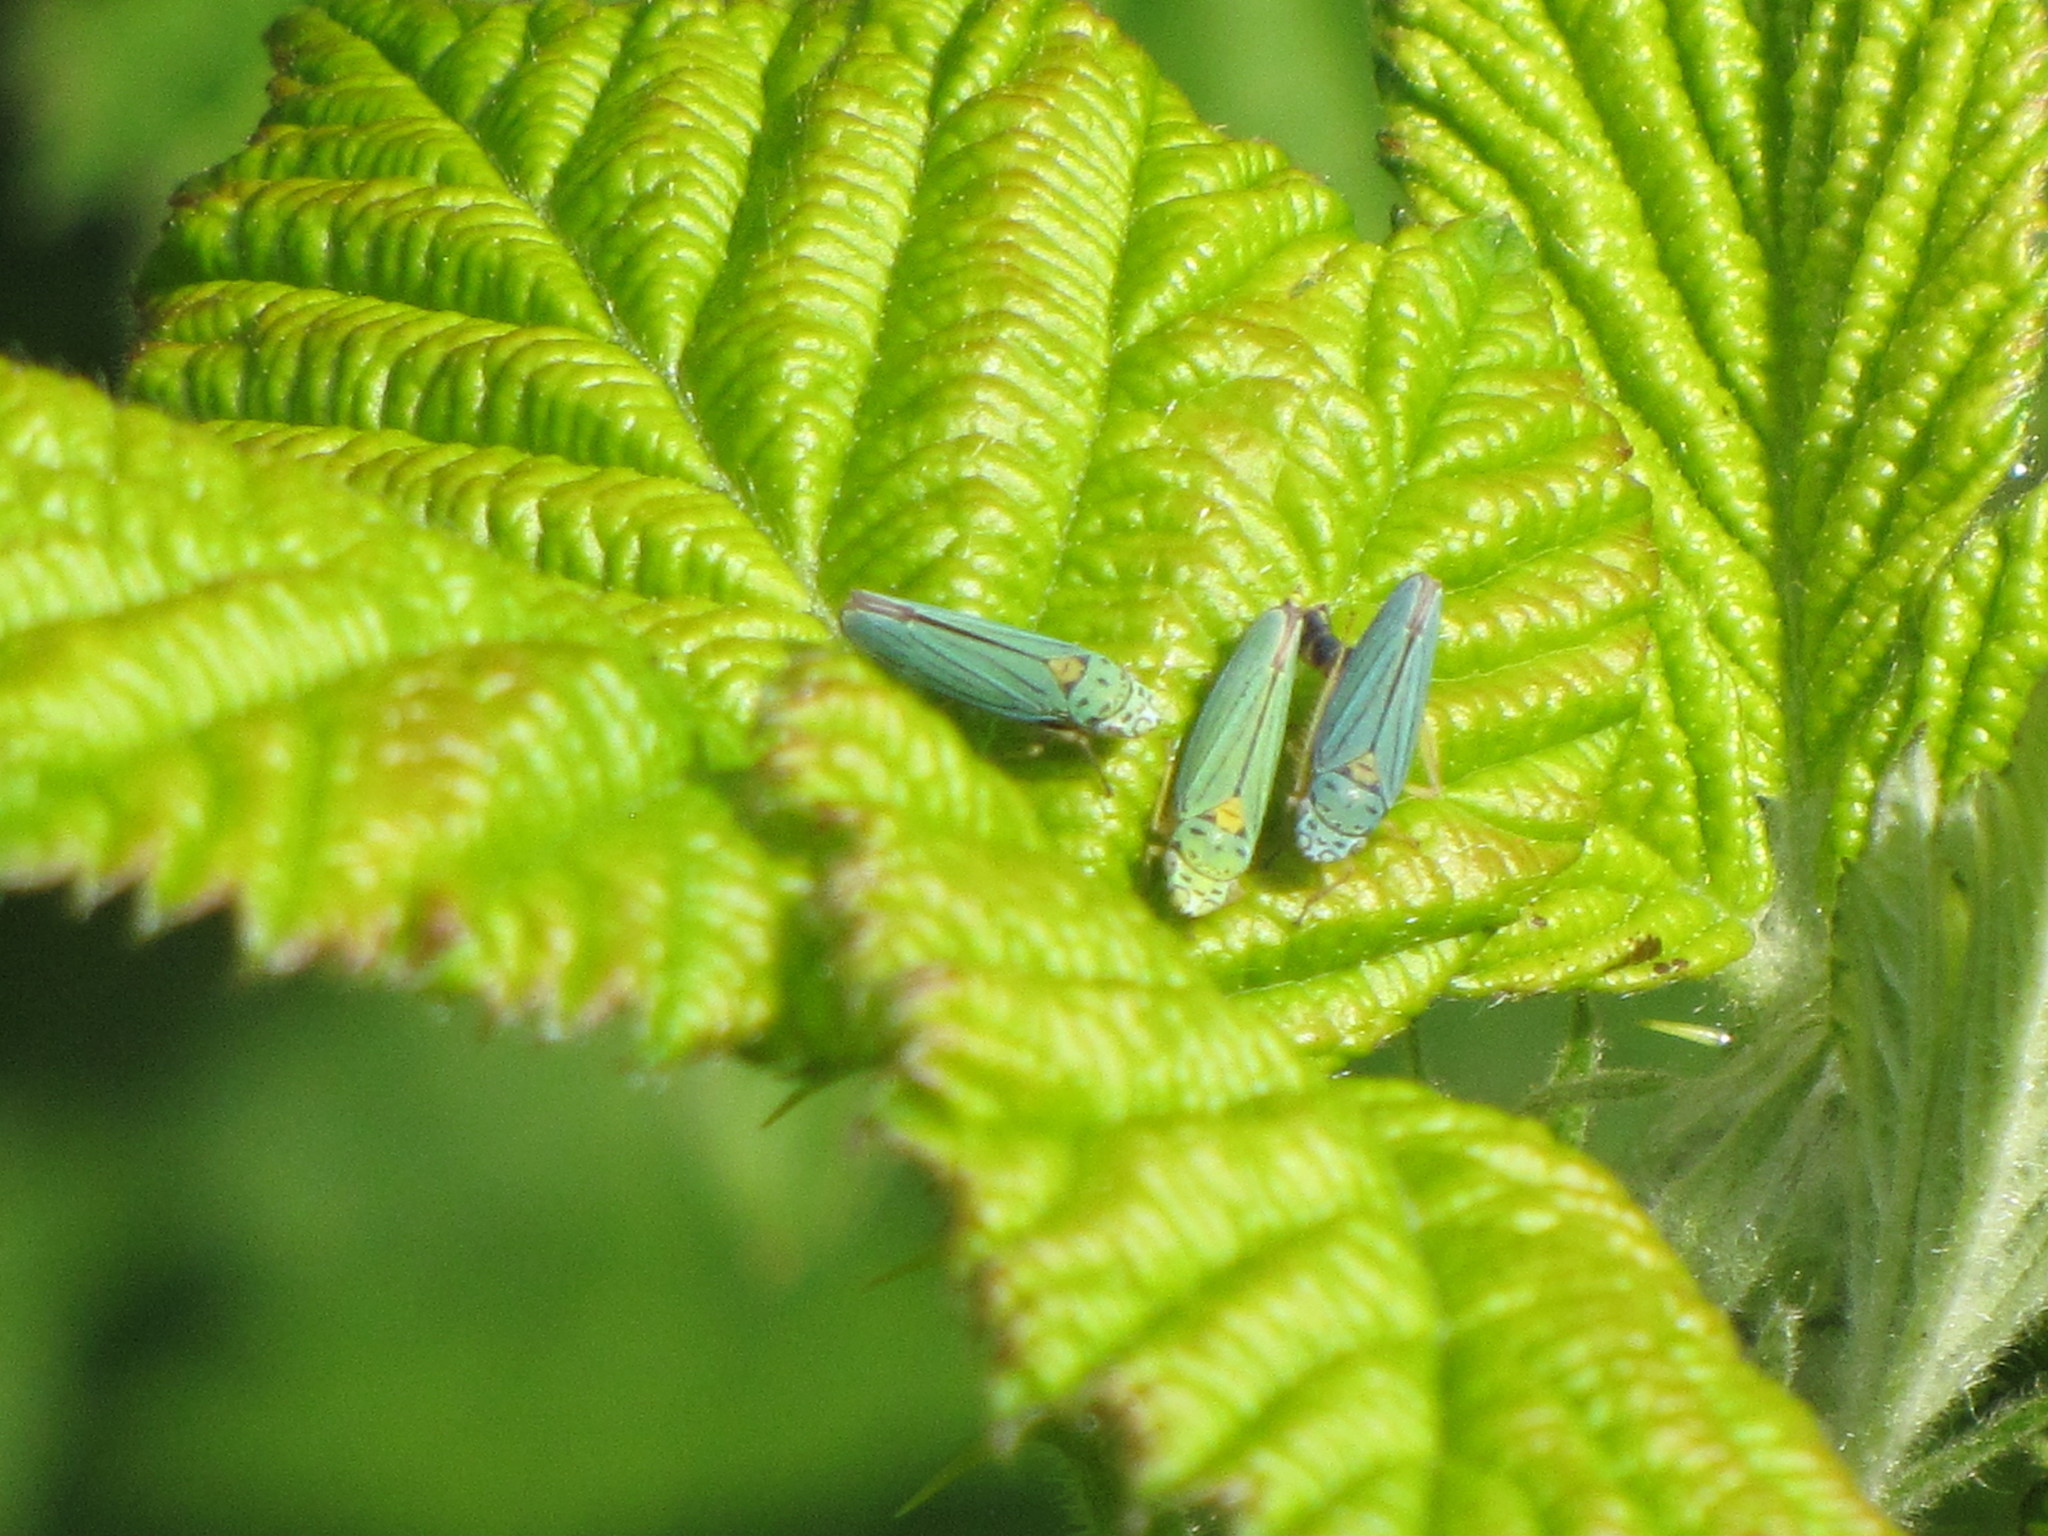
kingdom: Animalia
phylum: Arthropoda
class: Insecta
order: Hemiptera
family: Cicadellidae
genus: Graphocephala
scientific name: Graphocephala atropunctata
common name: Blue-green sharpshooter
